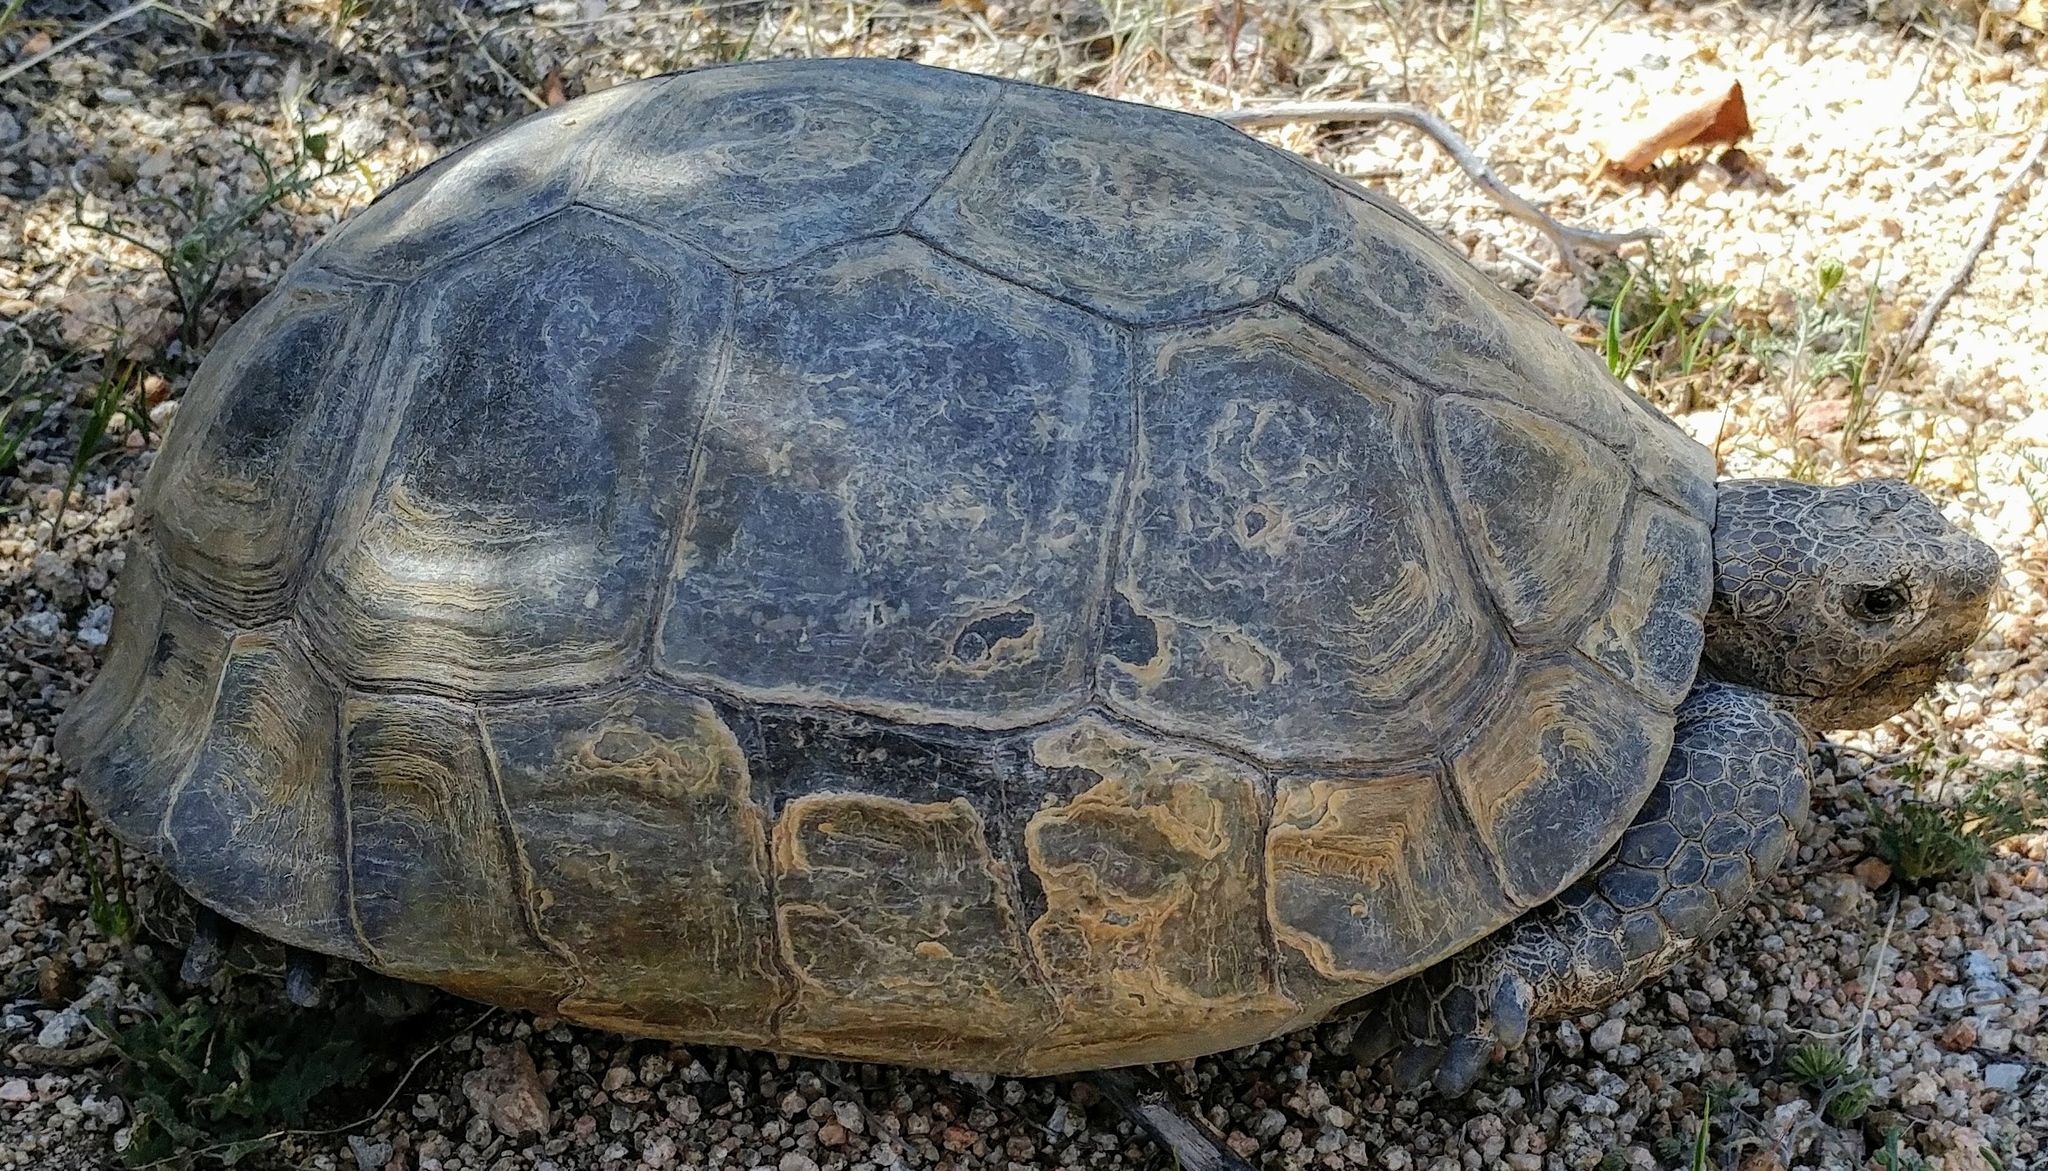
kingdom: Animalia
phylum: Chordata
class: Testudines
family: Testudinidae
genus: Gopherus
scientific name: Gopherus agassizii
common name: Mojave desert tortoise
